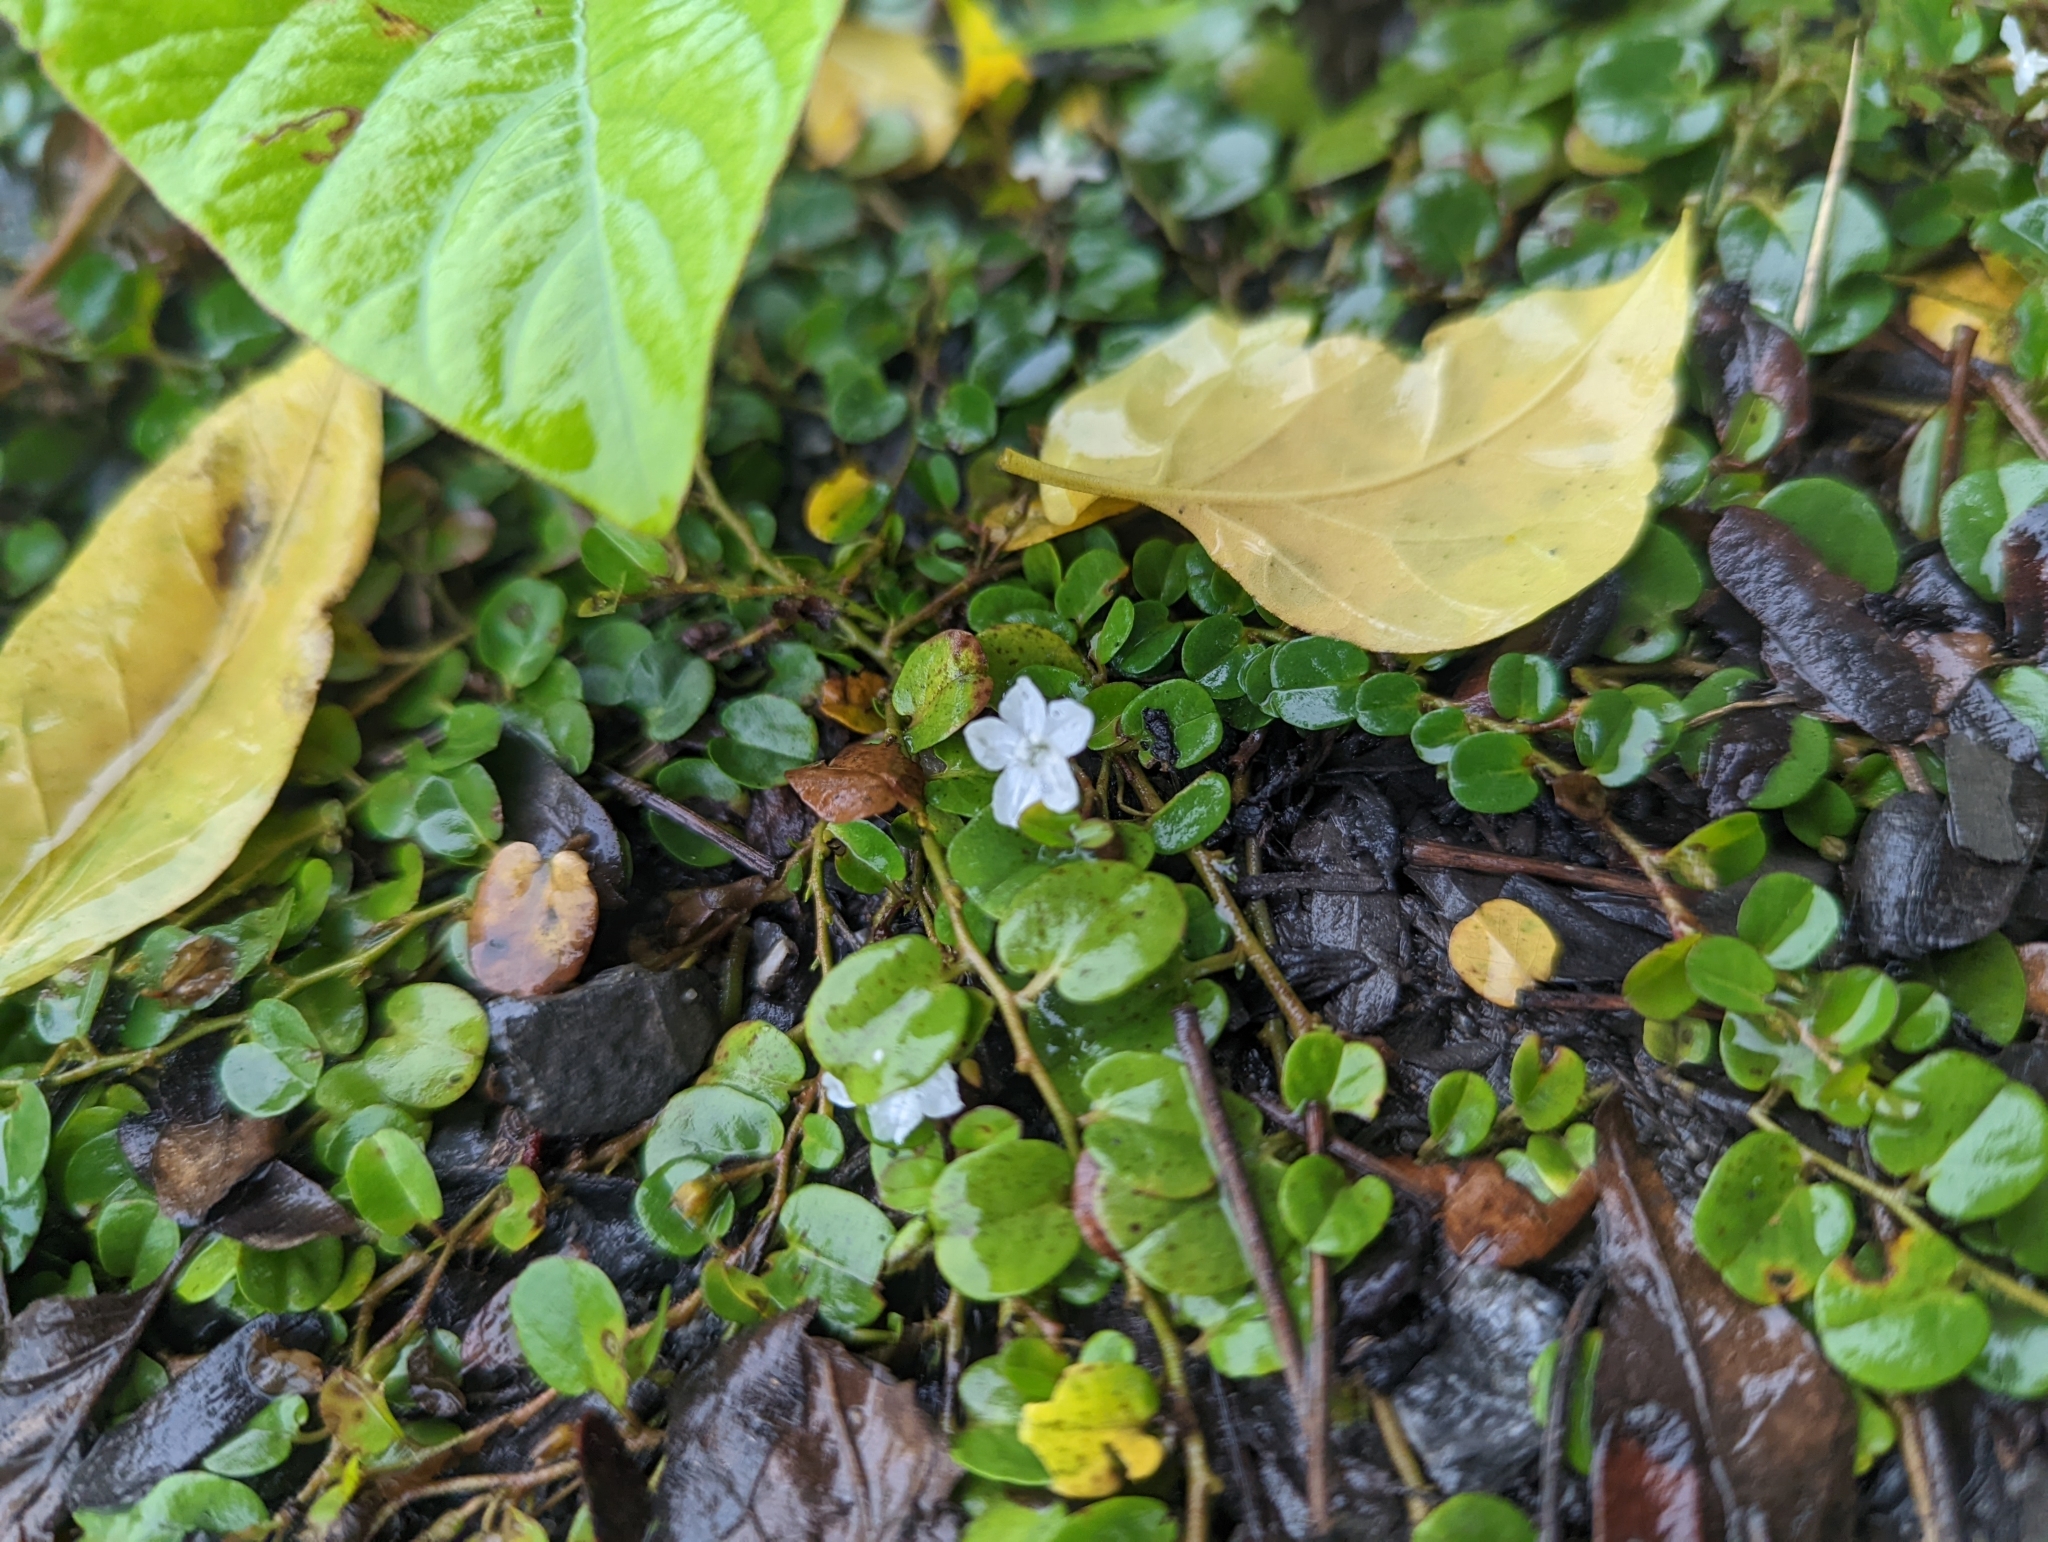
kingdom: Plantae
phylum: Tracheophyta
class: Magnoliopsida
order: Solanales
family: Convolvulaceae
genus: Evolvulus
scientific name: Evolvulus nummularius
